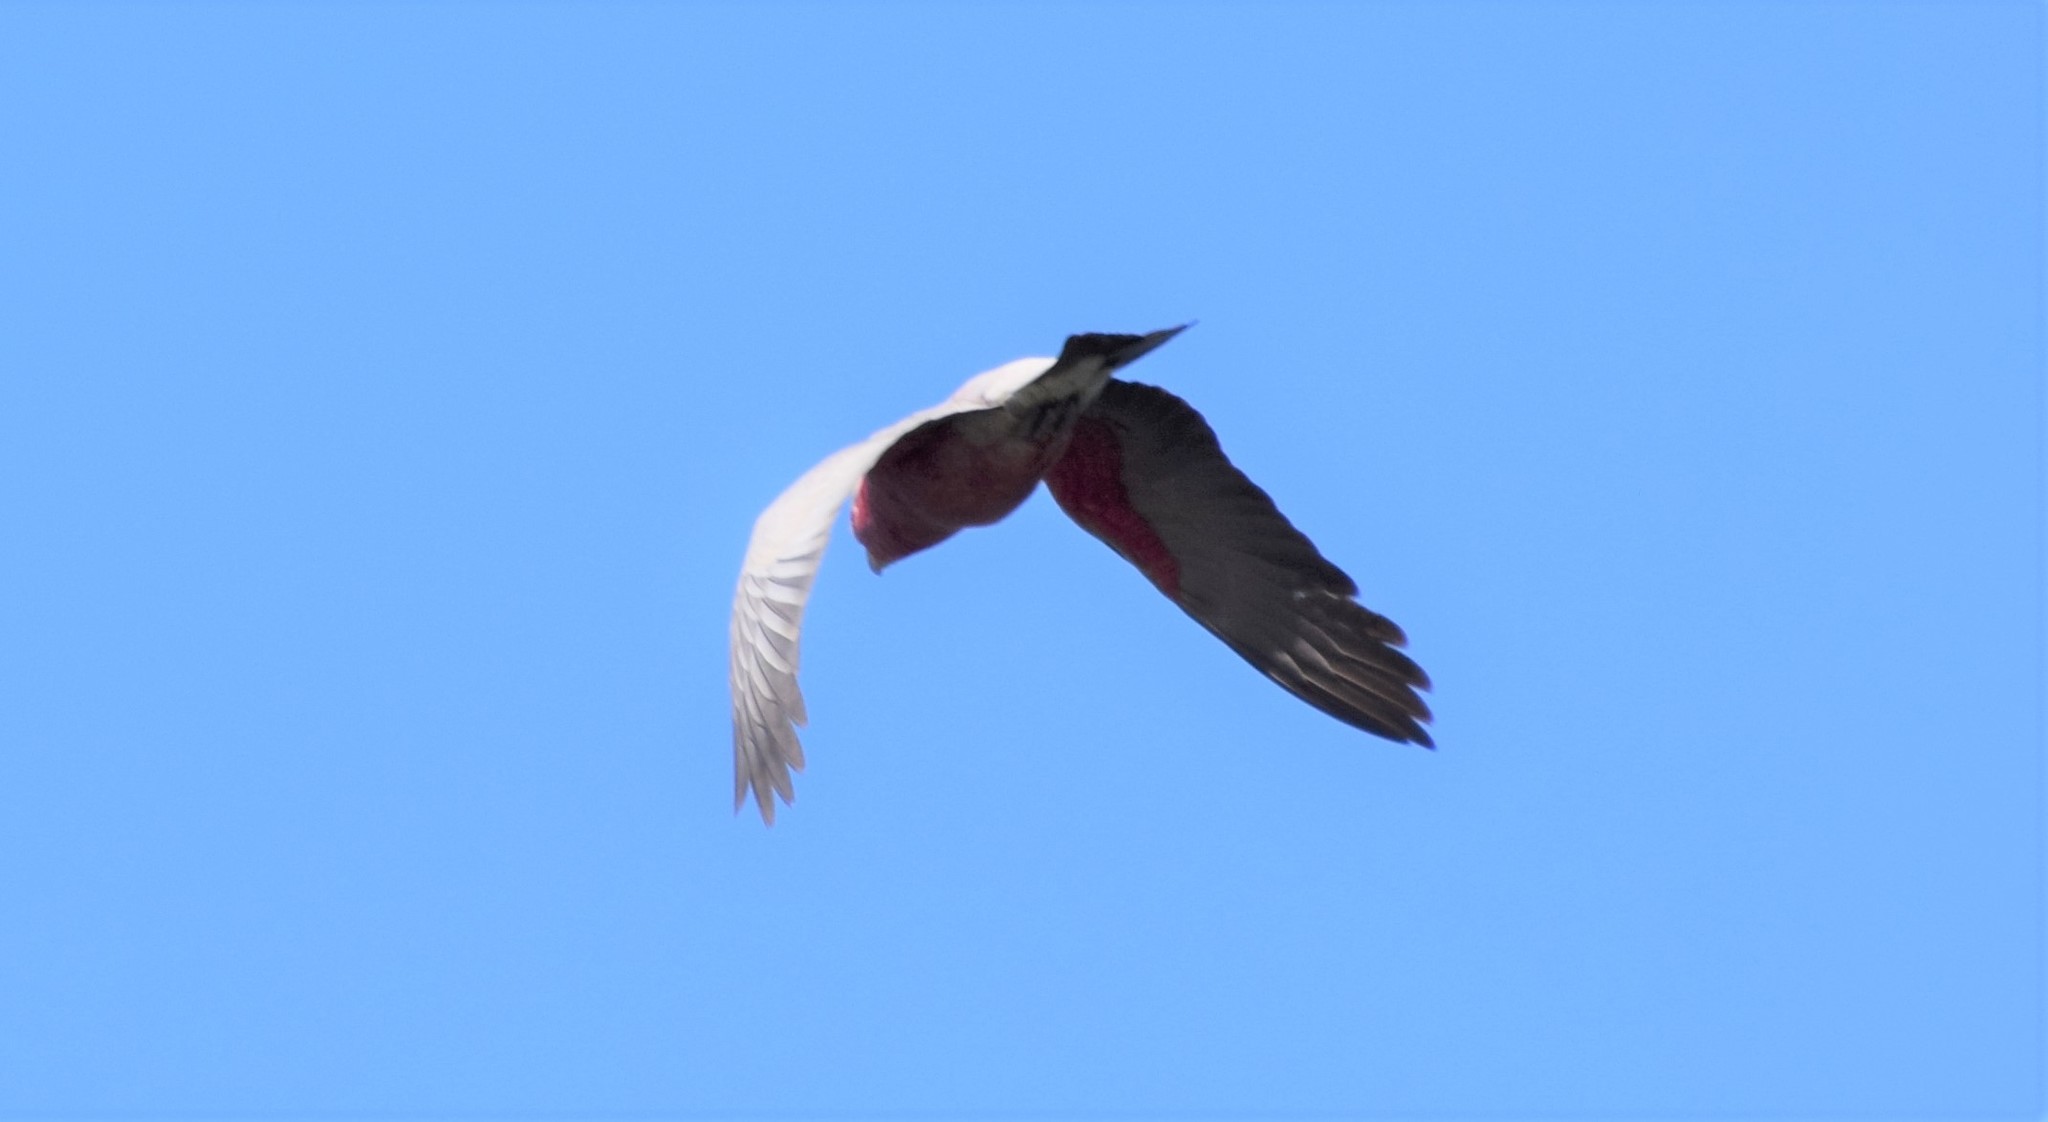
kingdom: Animalia
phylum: Chordata
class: Aves
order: Psittaciformes
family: Psittacidae
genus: Eolophus
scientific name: Eolophus roseicapilla
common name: Galah
